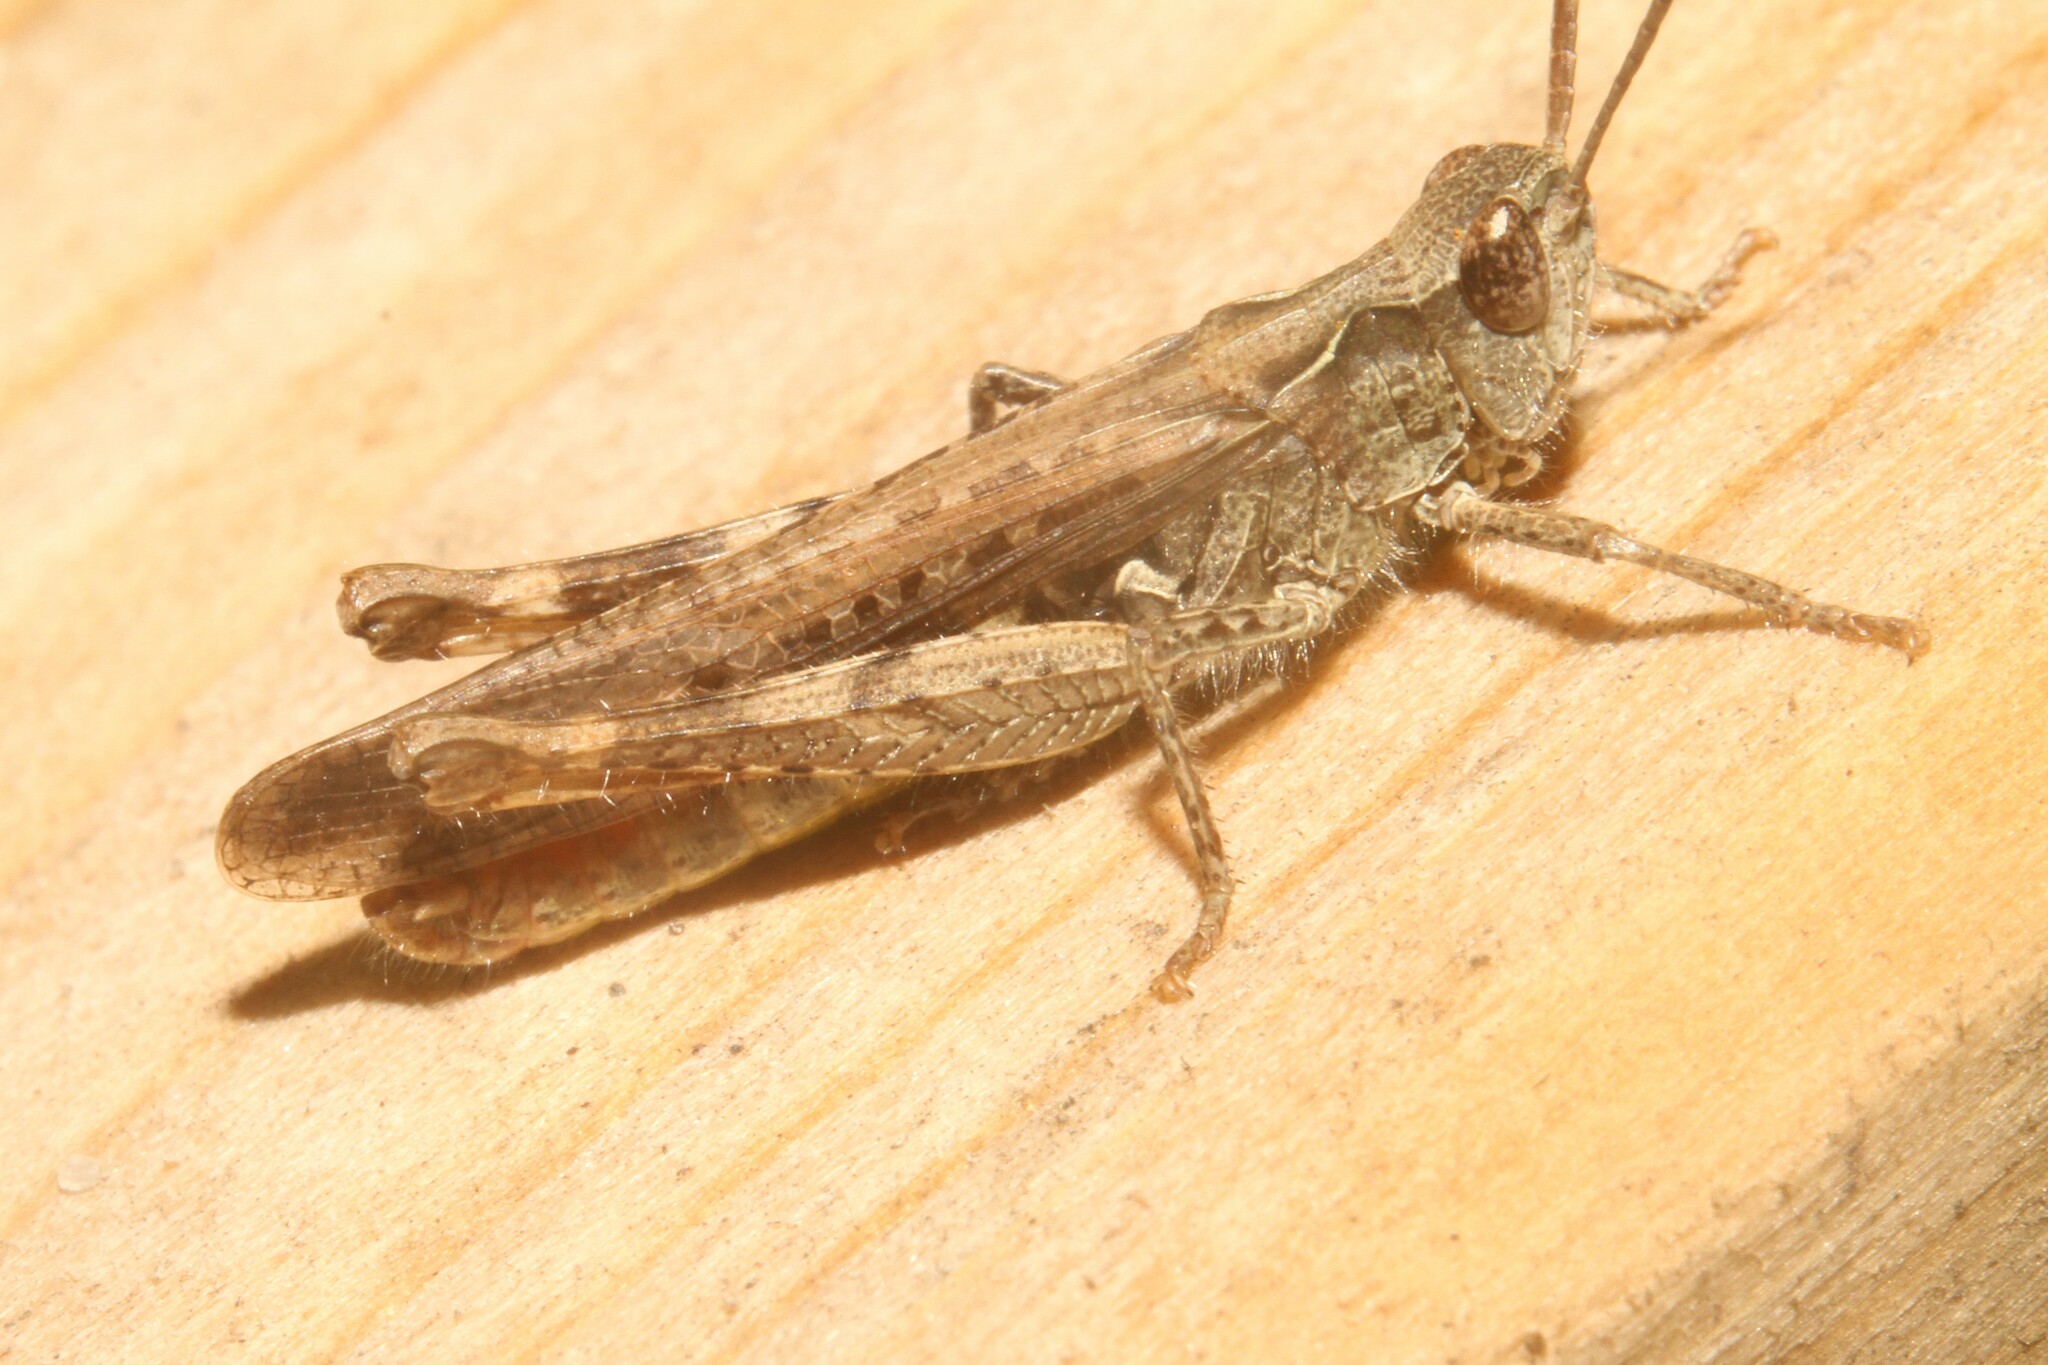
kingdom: Animalia
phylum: Arthropoda
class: Insecta
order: Orthoptera
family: Acrididae
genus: Chorthippus
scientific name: Chorthippus brunneus
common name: Field grasshopper
